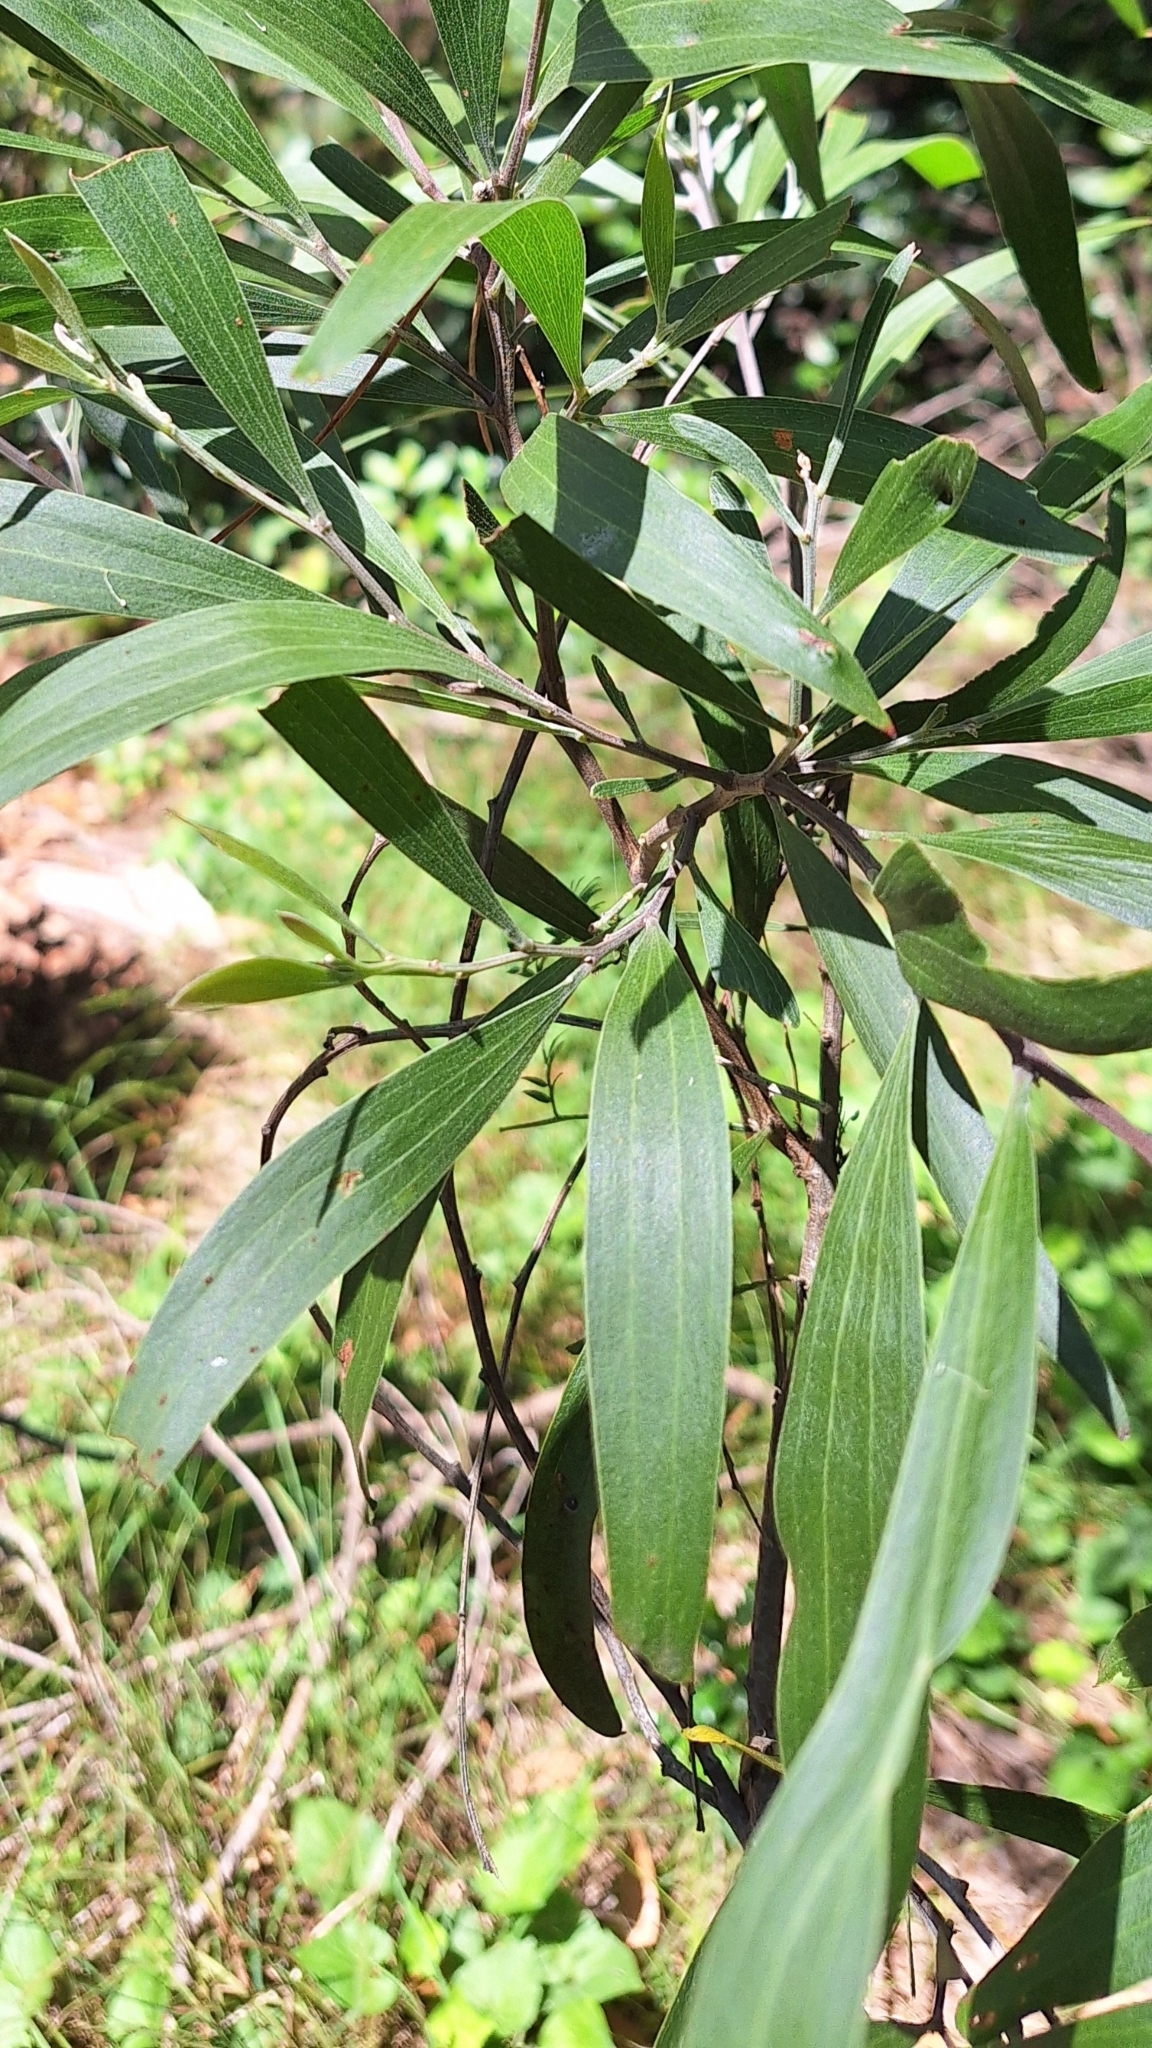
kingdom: Plantae
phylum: Tracheophyta
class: Magnoliopsida
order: Fabales
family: Fabaceae
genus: Acacia
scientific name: Acacia melanoxylon
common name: Blackwood
